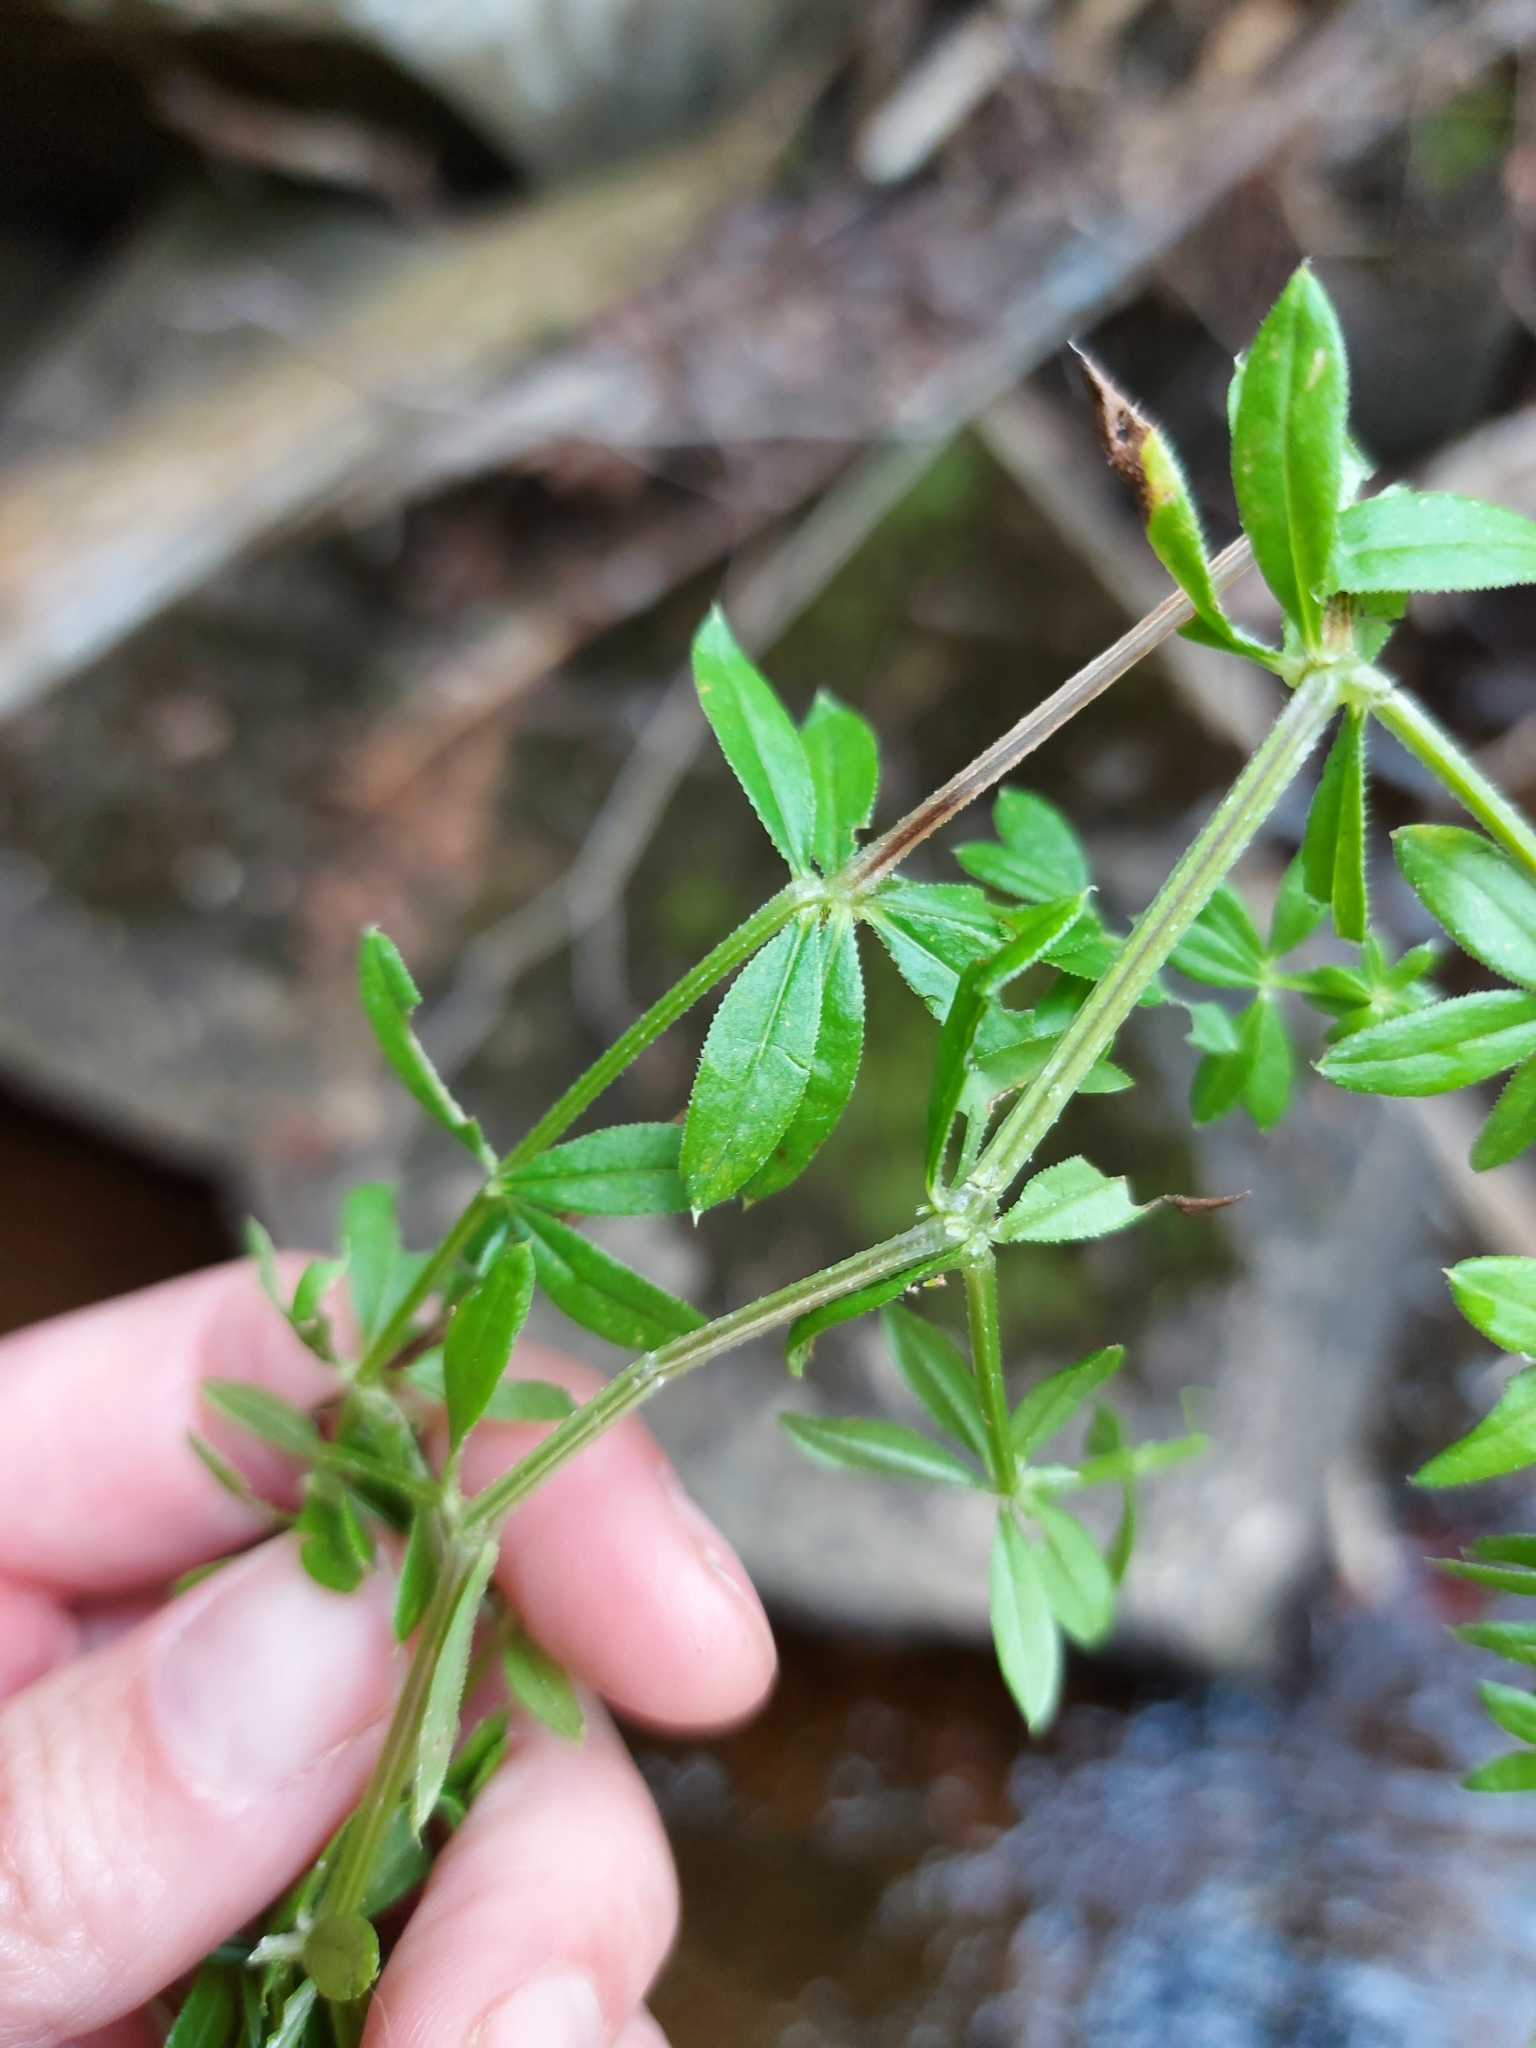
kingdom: Plantae
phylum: Tracheophyta
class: Magnoliopsida
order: Gentianales
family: Rubiaceae
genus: Galium
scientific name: Galium asprellum
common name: Rough bedstraw
